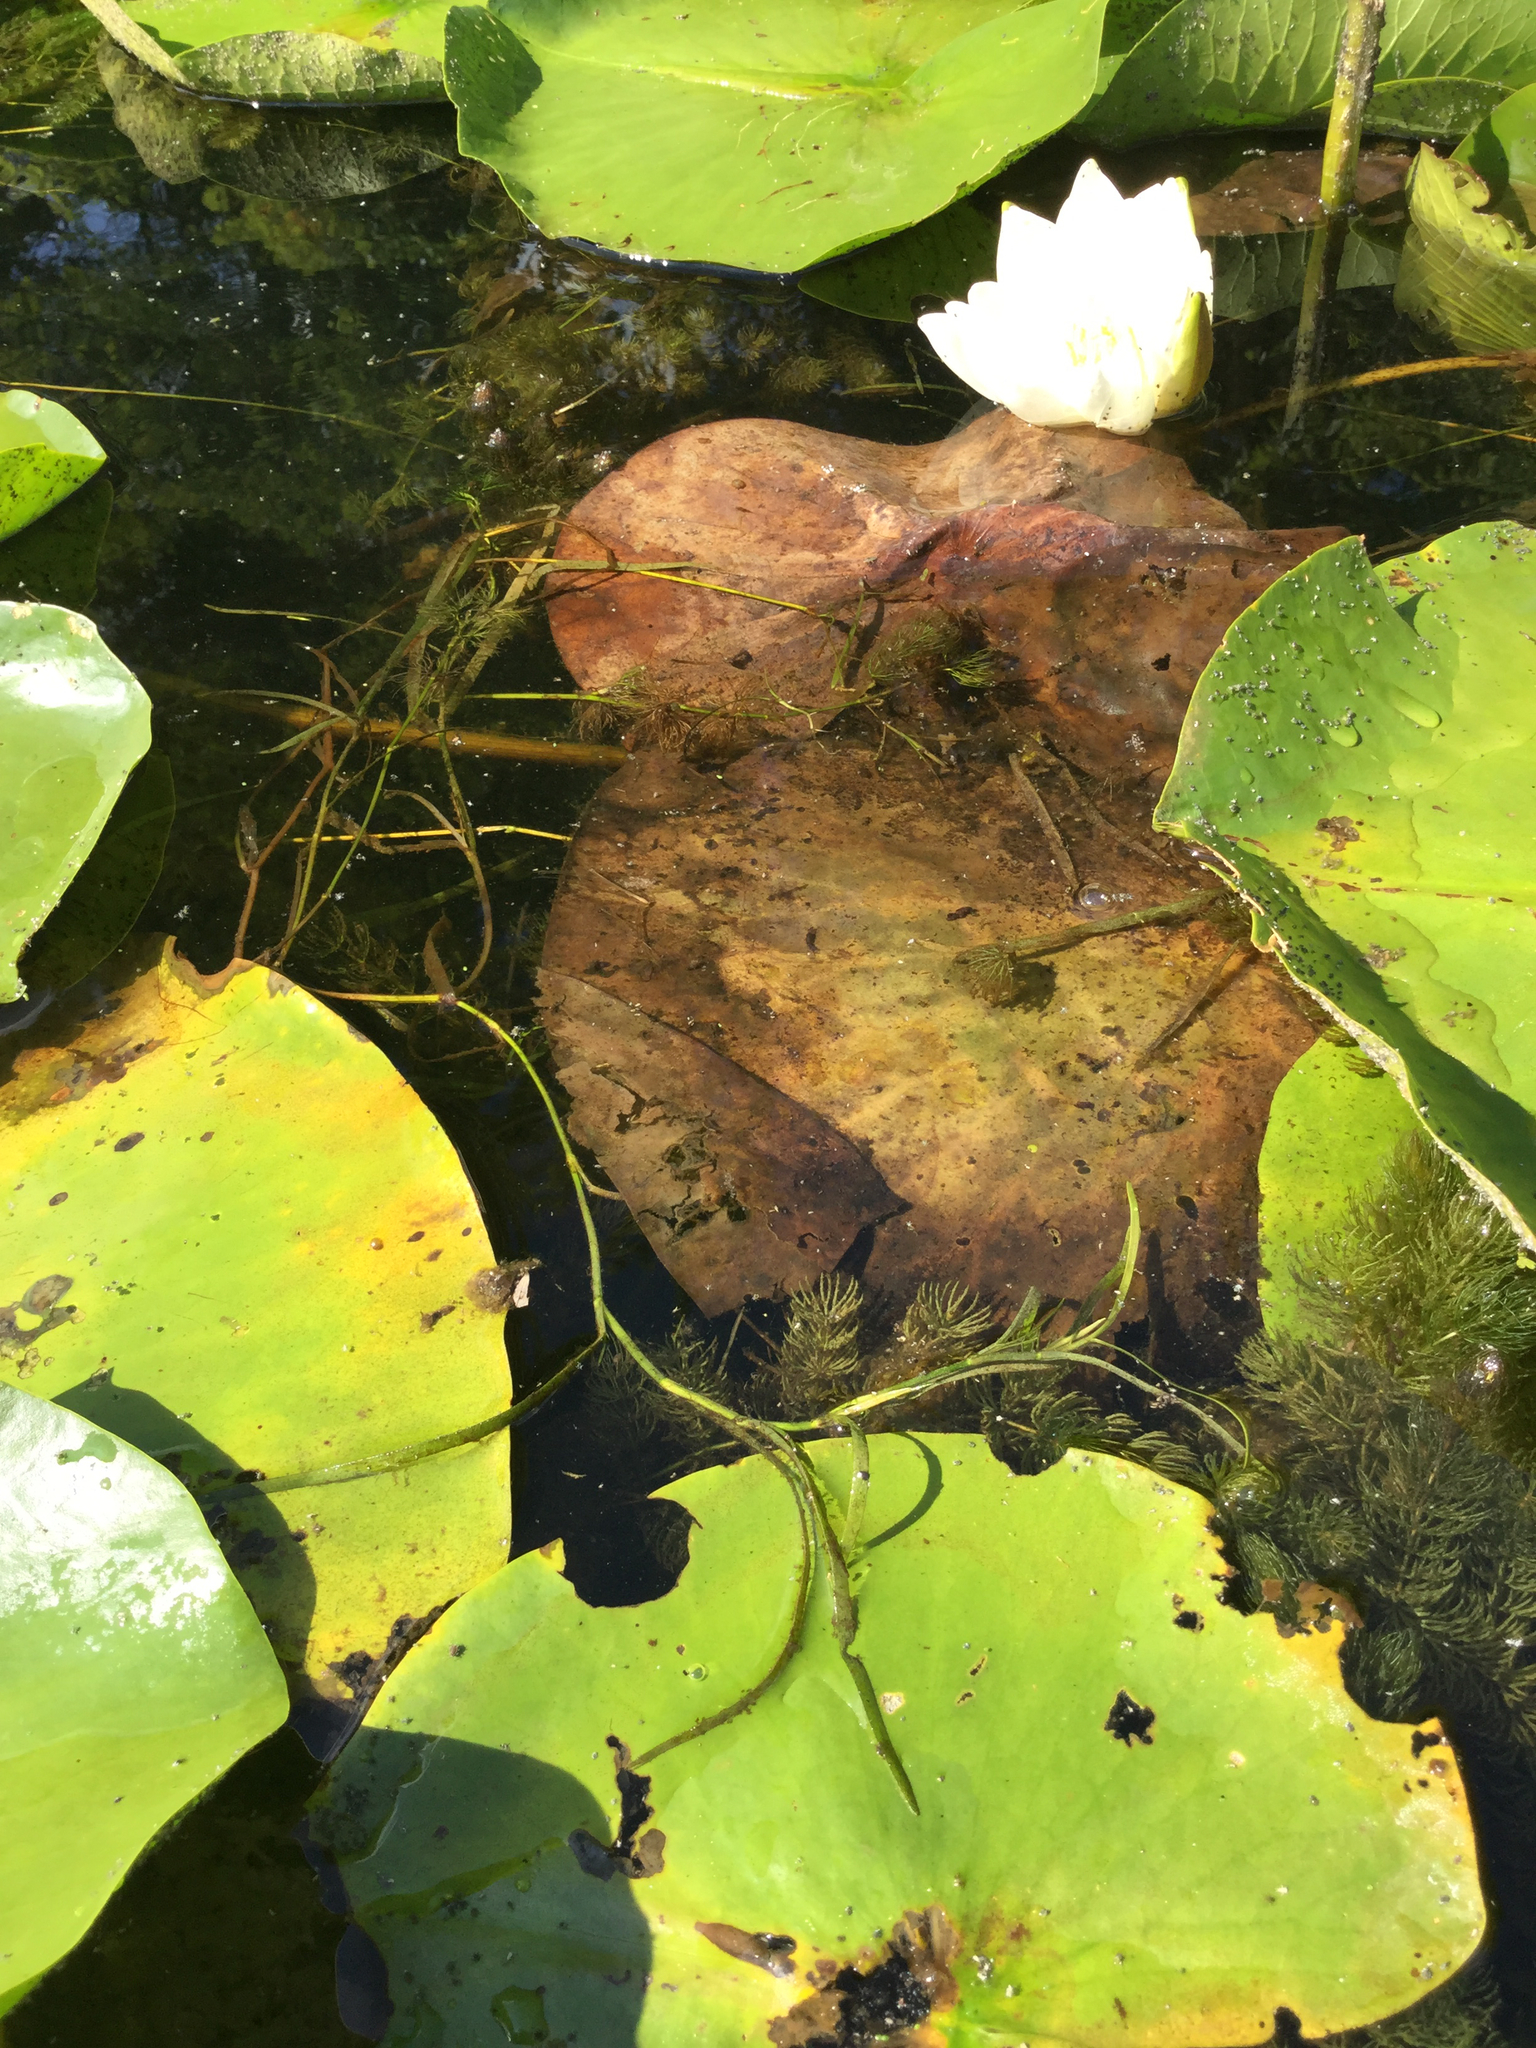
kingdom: Plantae
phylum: Tracheophyta
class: Liliopsida
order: Commelinales
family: Pontederiaceae
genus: Heteranthera
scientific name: Heteranthera dubia
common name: Grass-leaved mud plantain
